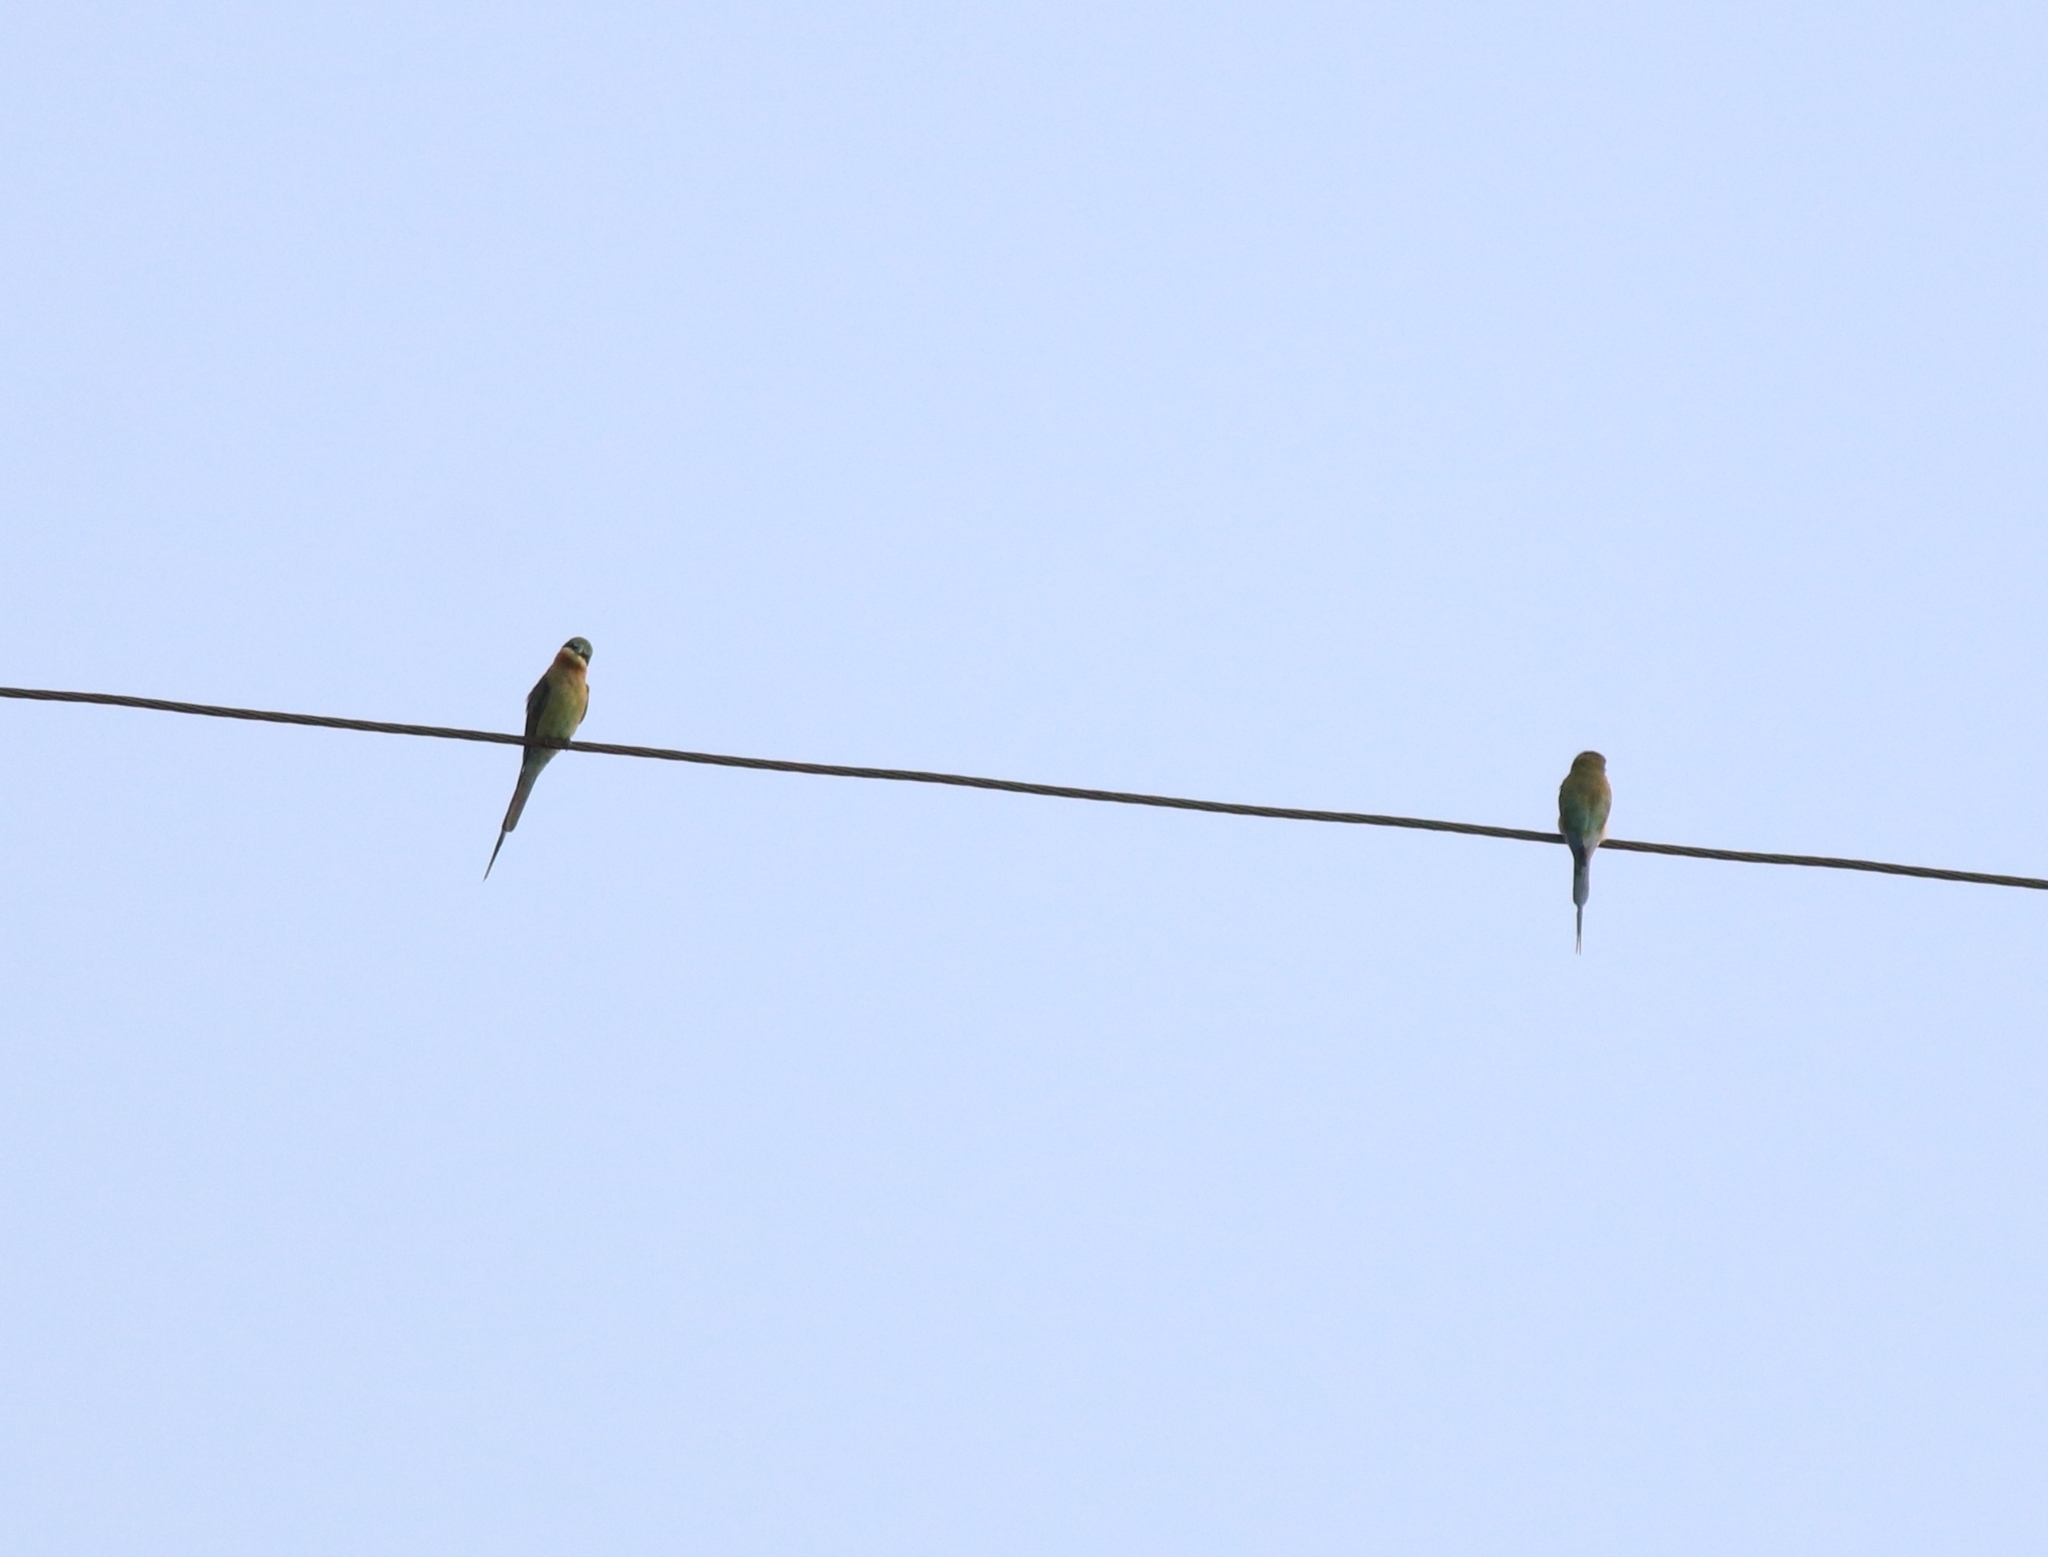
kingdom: Animalia
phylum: Chordata
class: Aves
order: Coraciiformes
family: Meropidae
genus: Merops
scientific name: Merops philippinus
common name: Blue-tailed bee-eater
